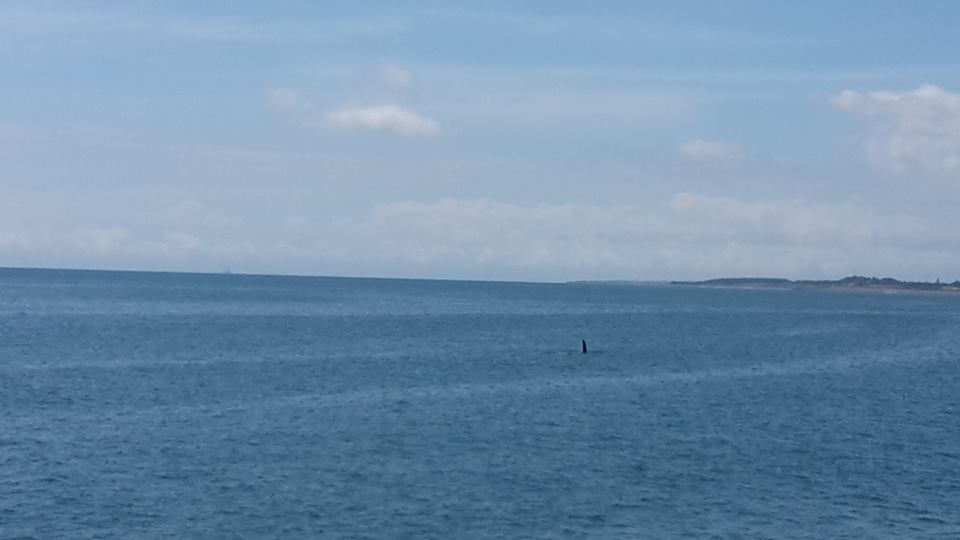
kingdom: Animalia
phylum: Chordata
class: Mammalia
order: Cetacea
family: Delphinidae
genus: Orcinus
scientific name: Orcinus orca
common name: Killer whale
